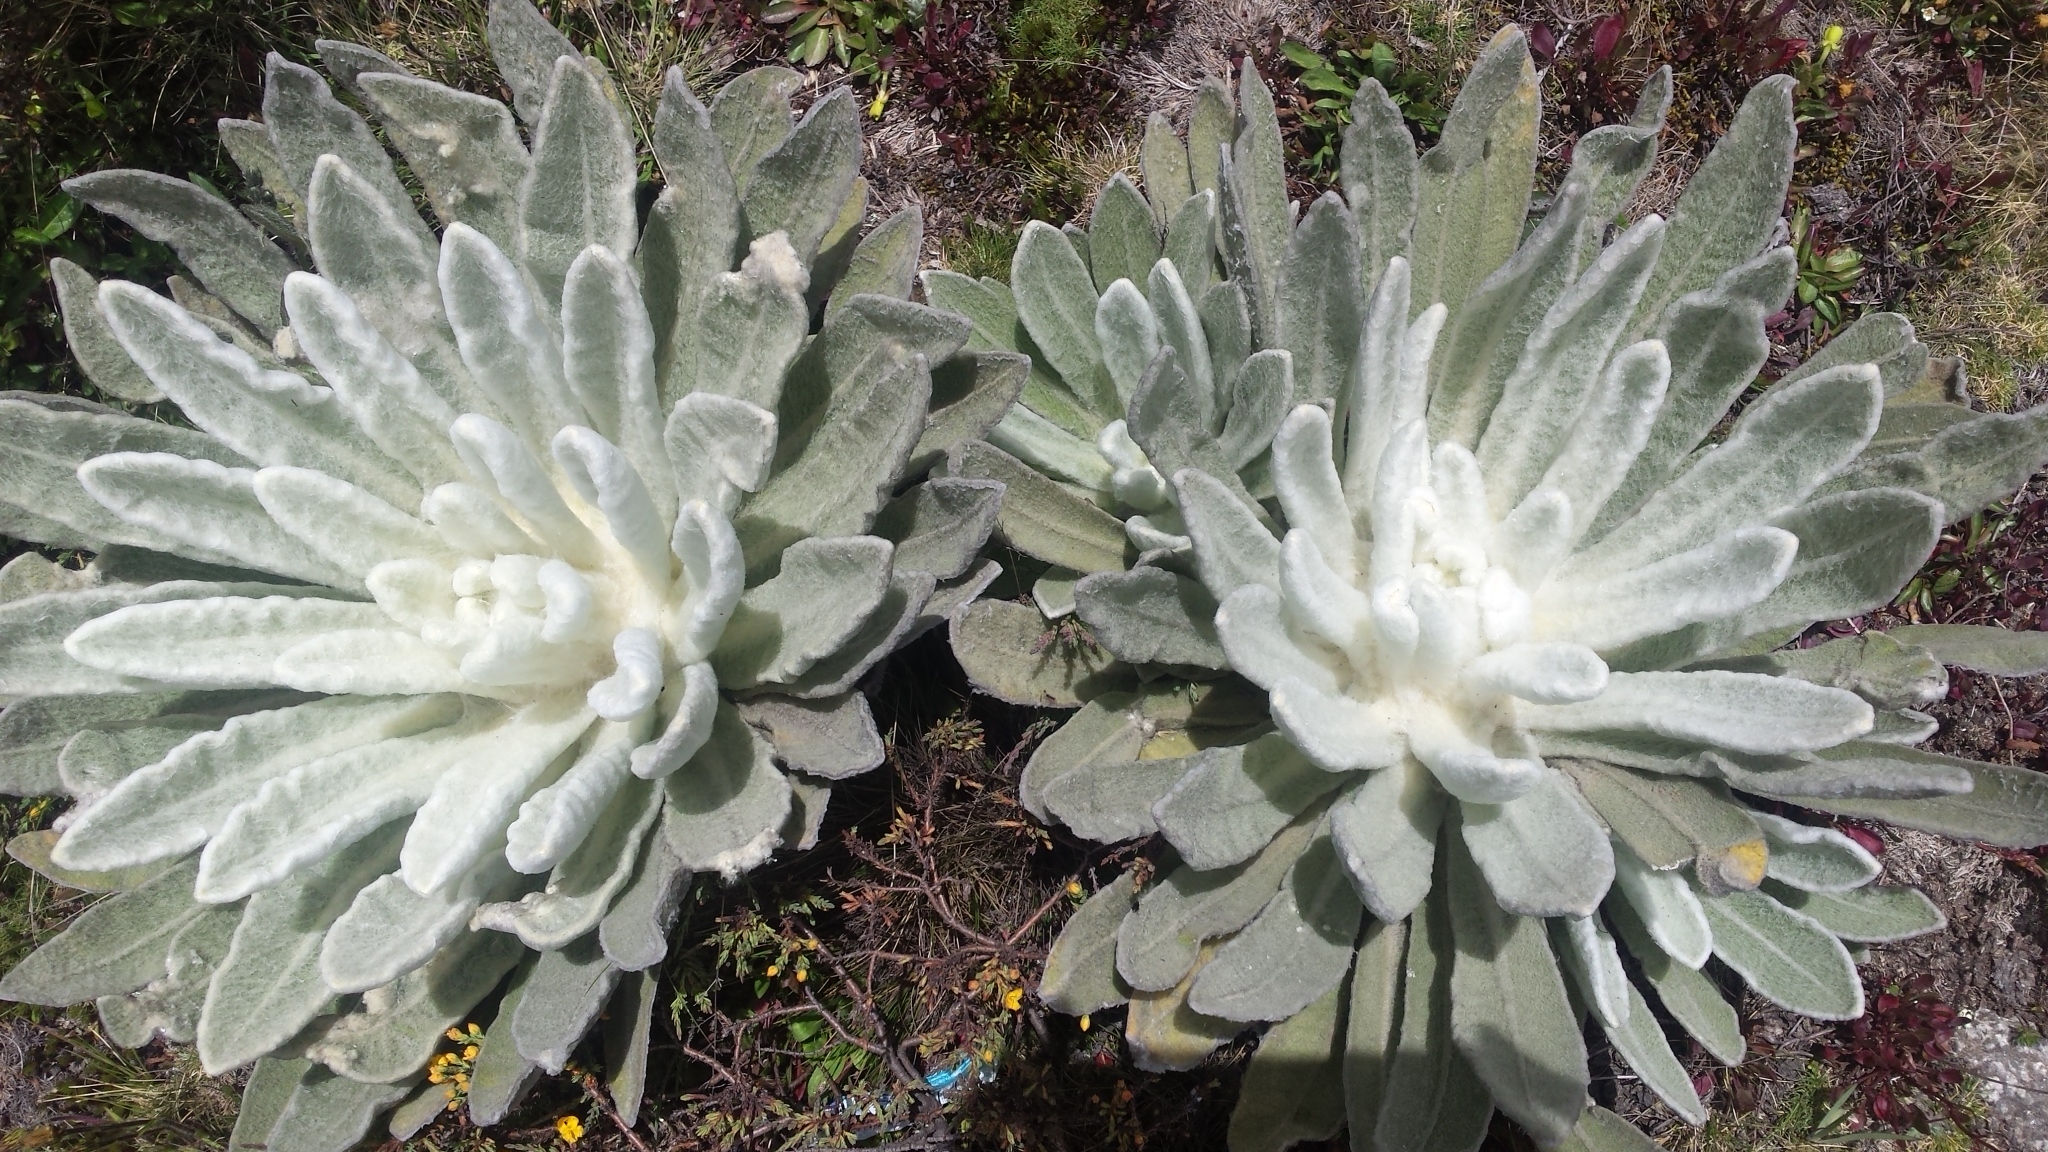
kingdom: Plantae
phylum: Tracheophyta
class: Magnoliopsida
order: Asterales
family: Asteraceae
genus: Espeletia
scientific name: Espeletia schultzii
